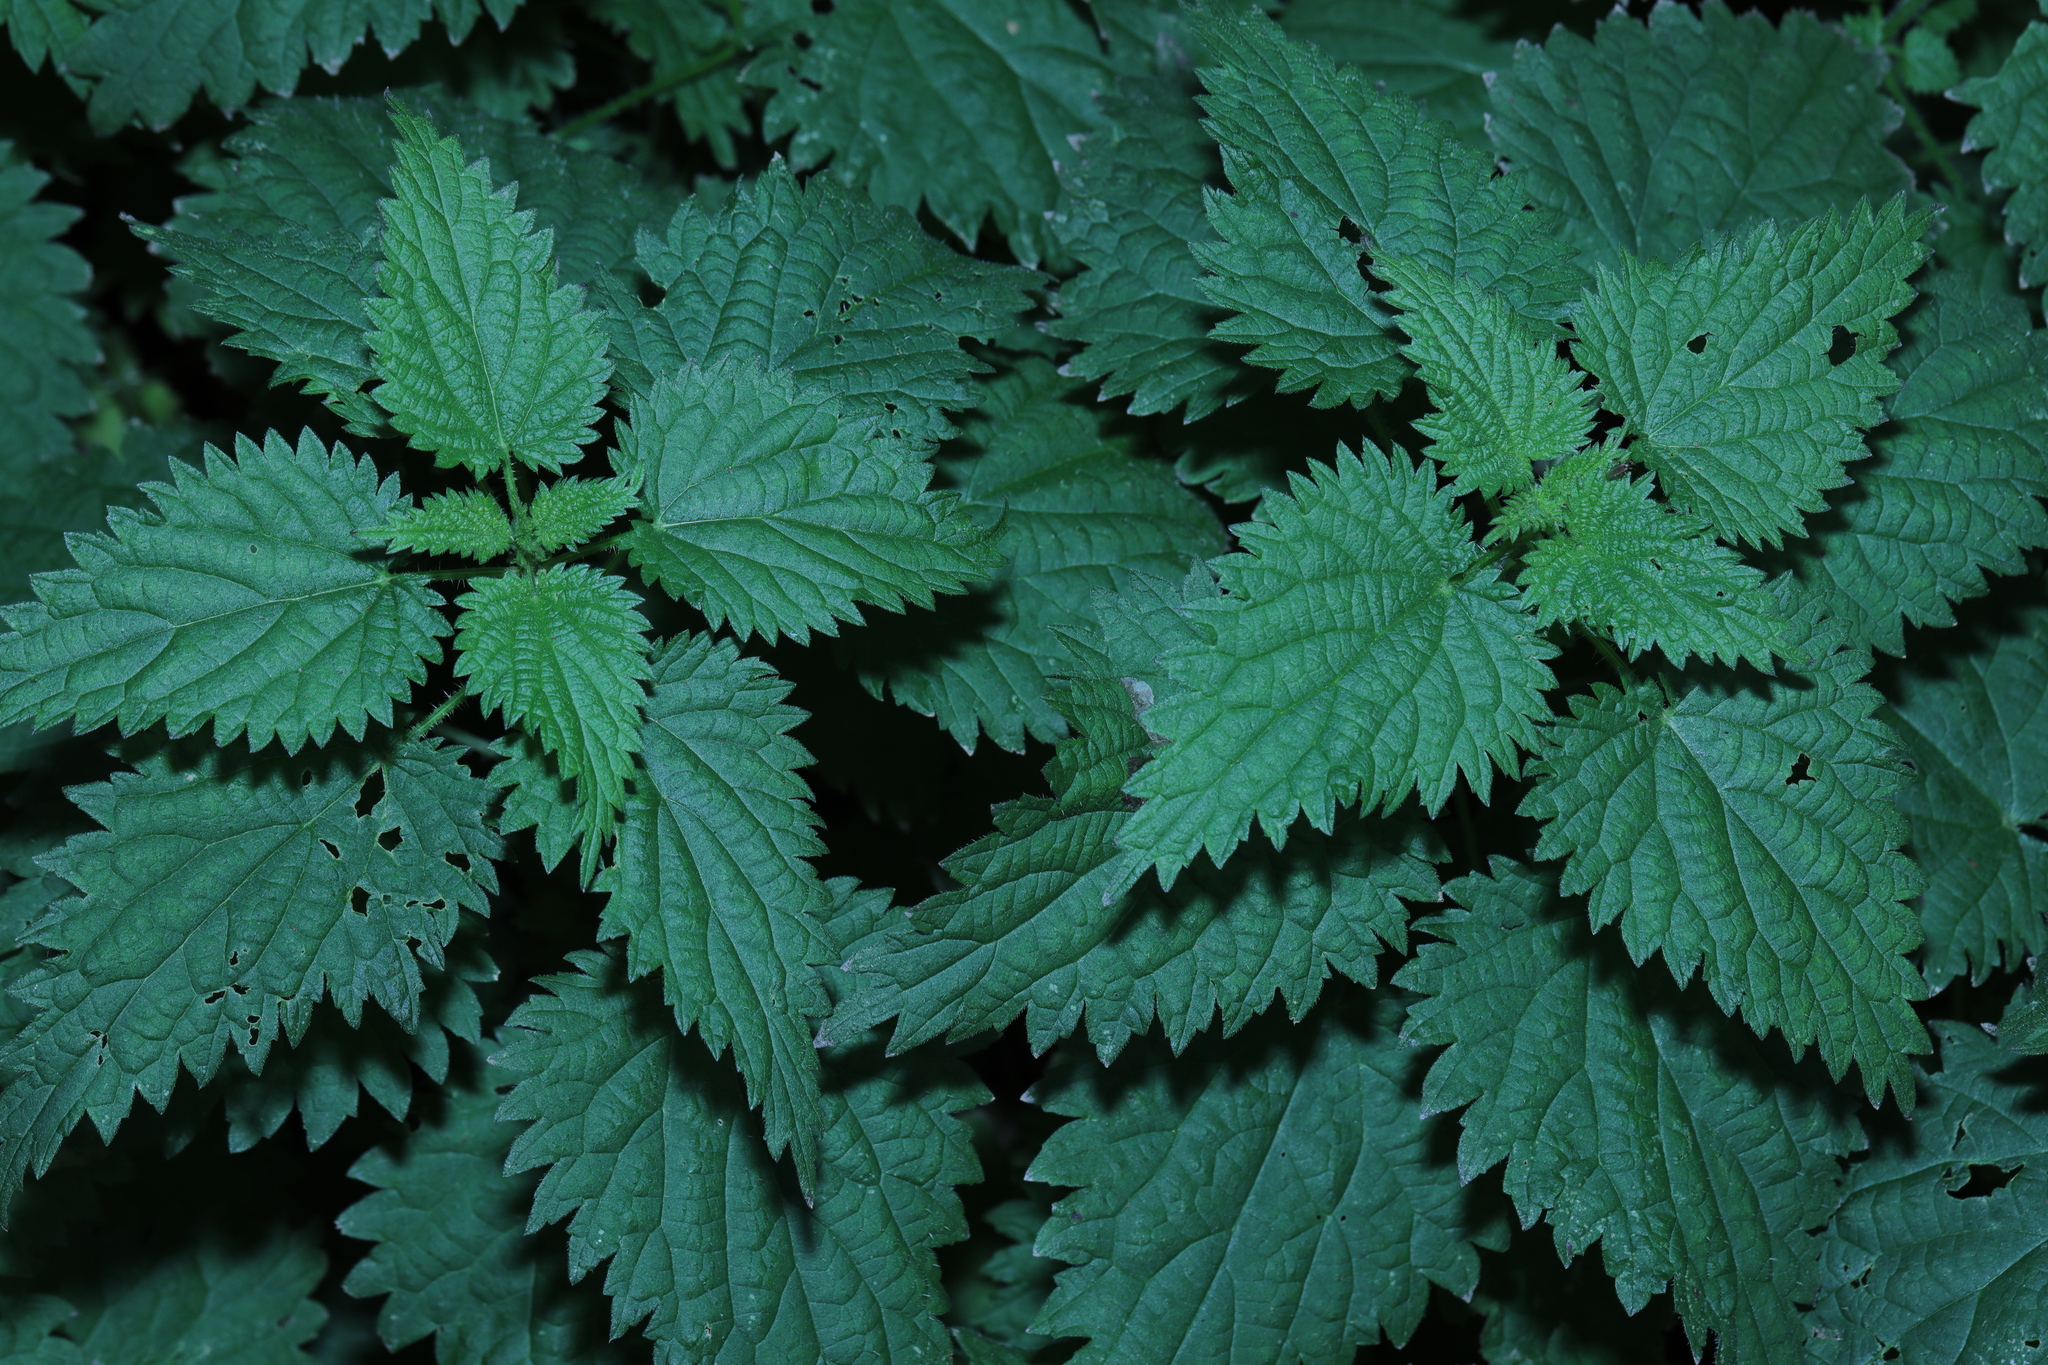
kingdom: Plantae
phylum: Tracheophyta
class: Magnoliopsida
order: Rosales
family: Urticaceae
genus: Urtica
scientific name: Urtica dioica
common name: Common nettle
